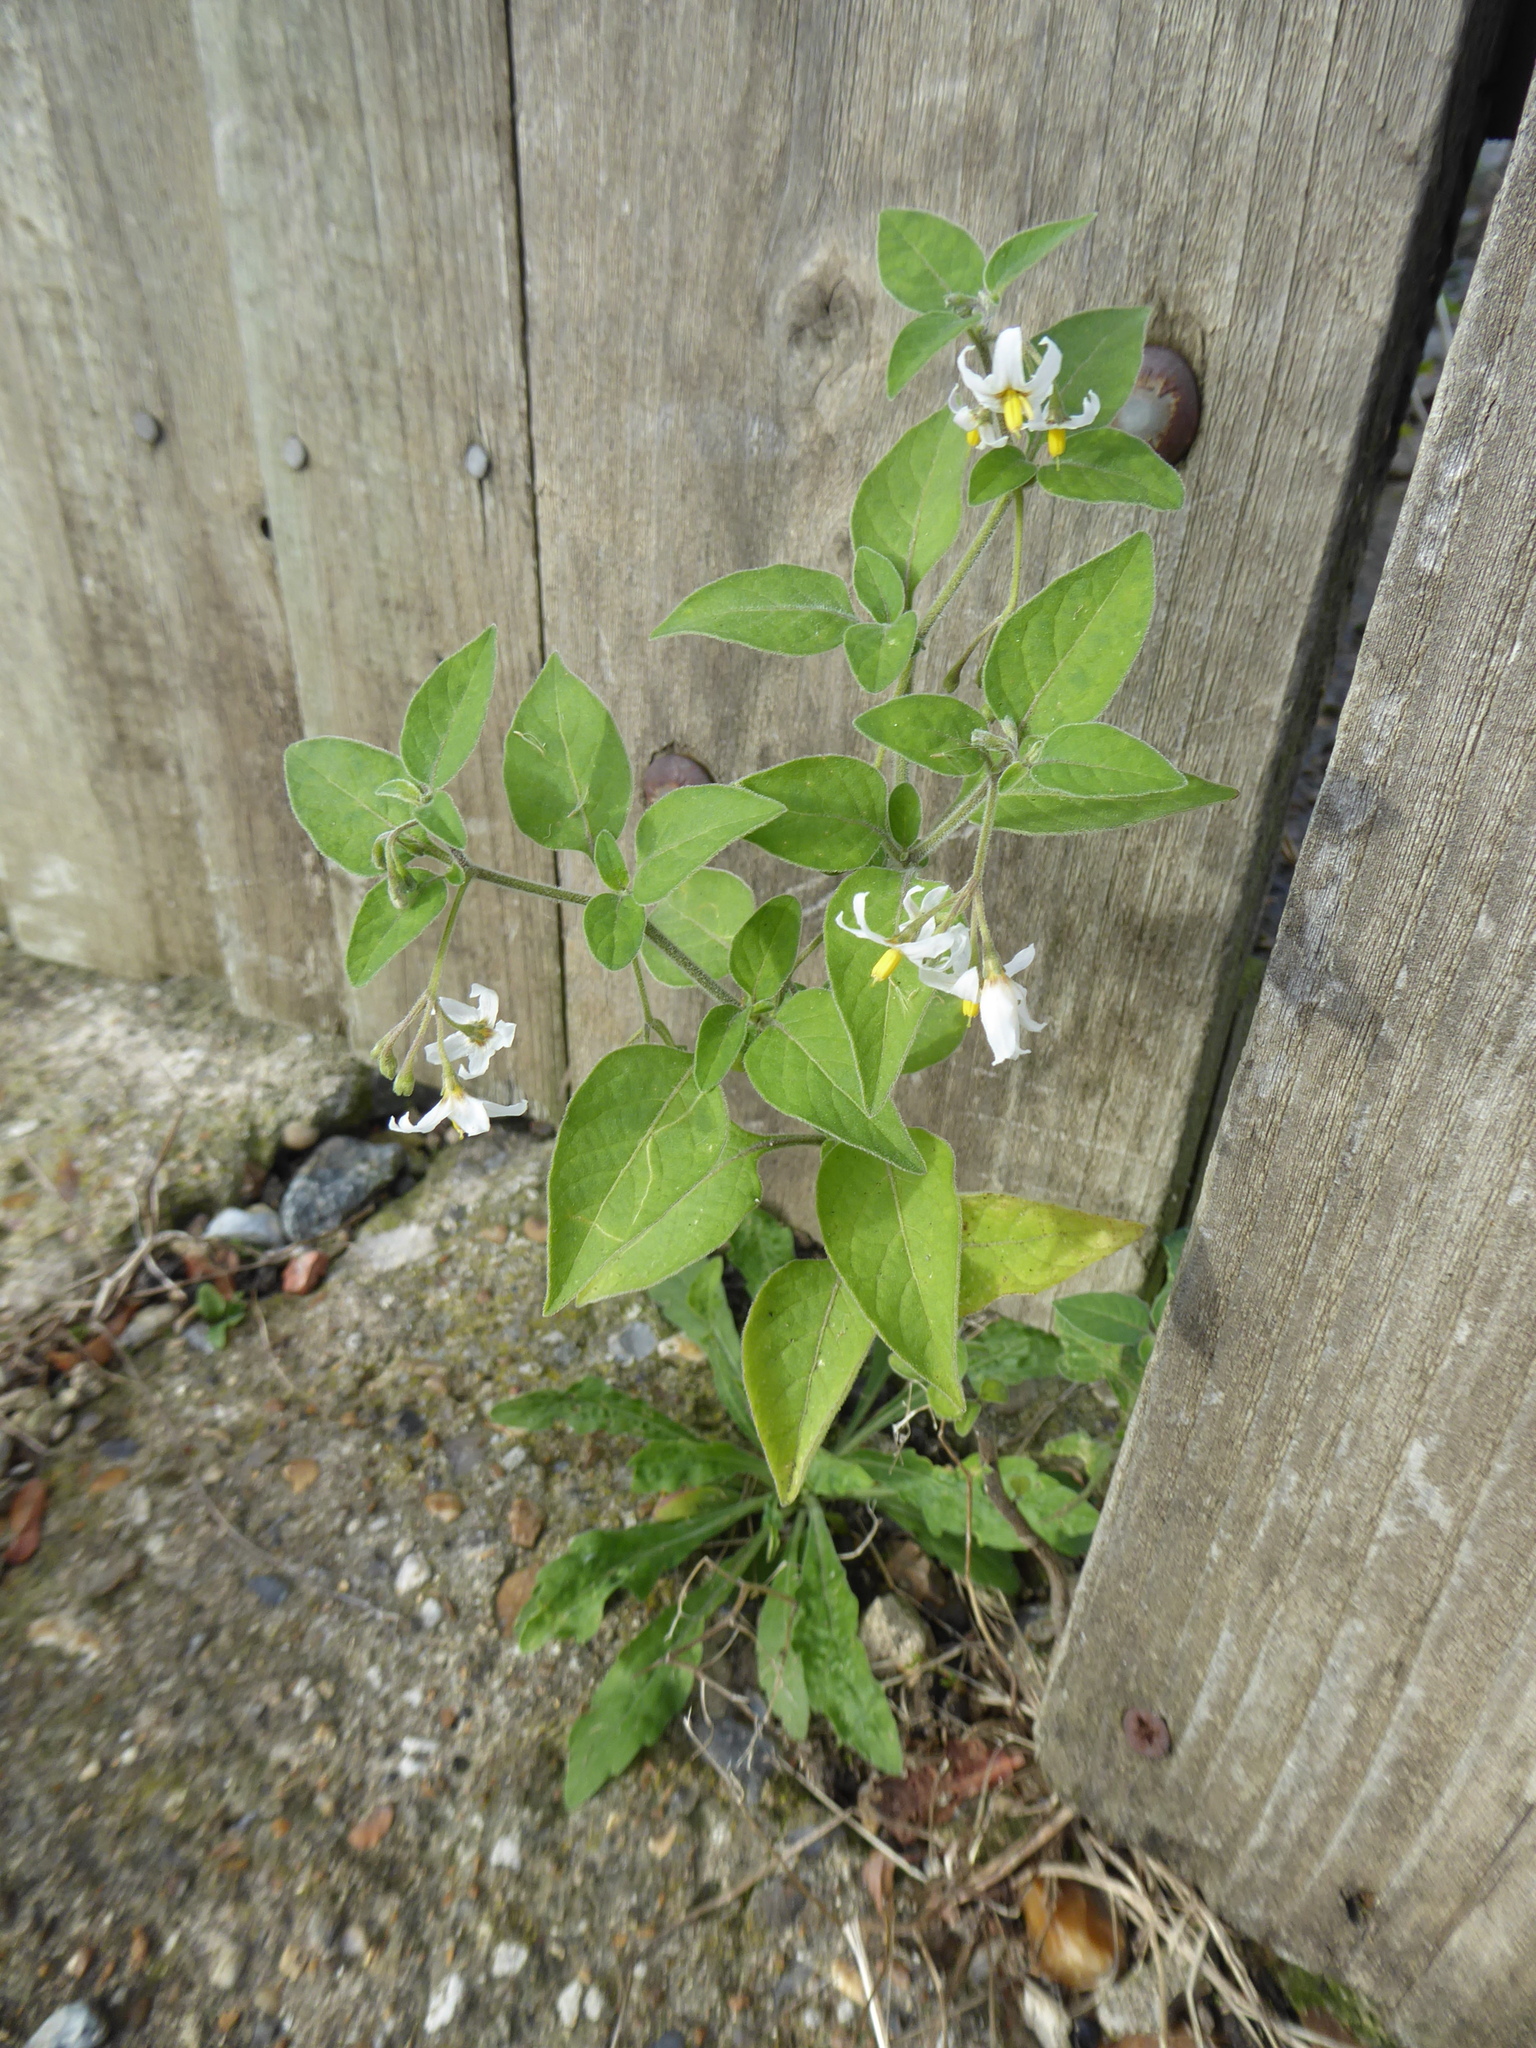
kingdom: Plantae
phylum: Tracheophyta
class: Magnoliopsida
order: Solanales
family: Solanaceae
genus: Solanum
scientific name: Solanum chenopodioides
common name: Tall nightshade
